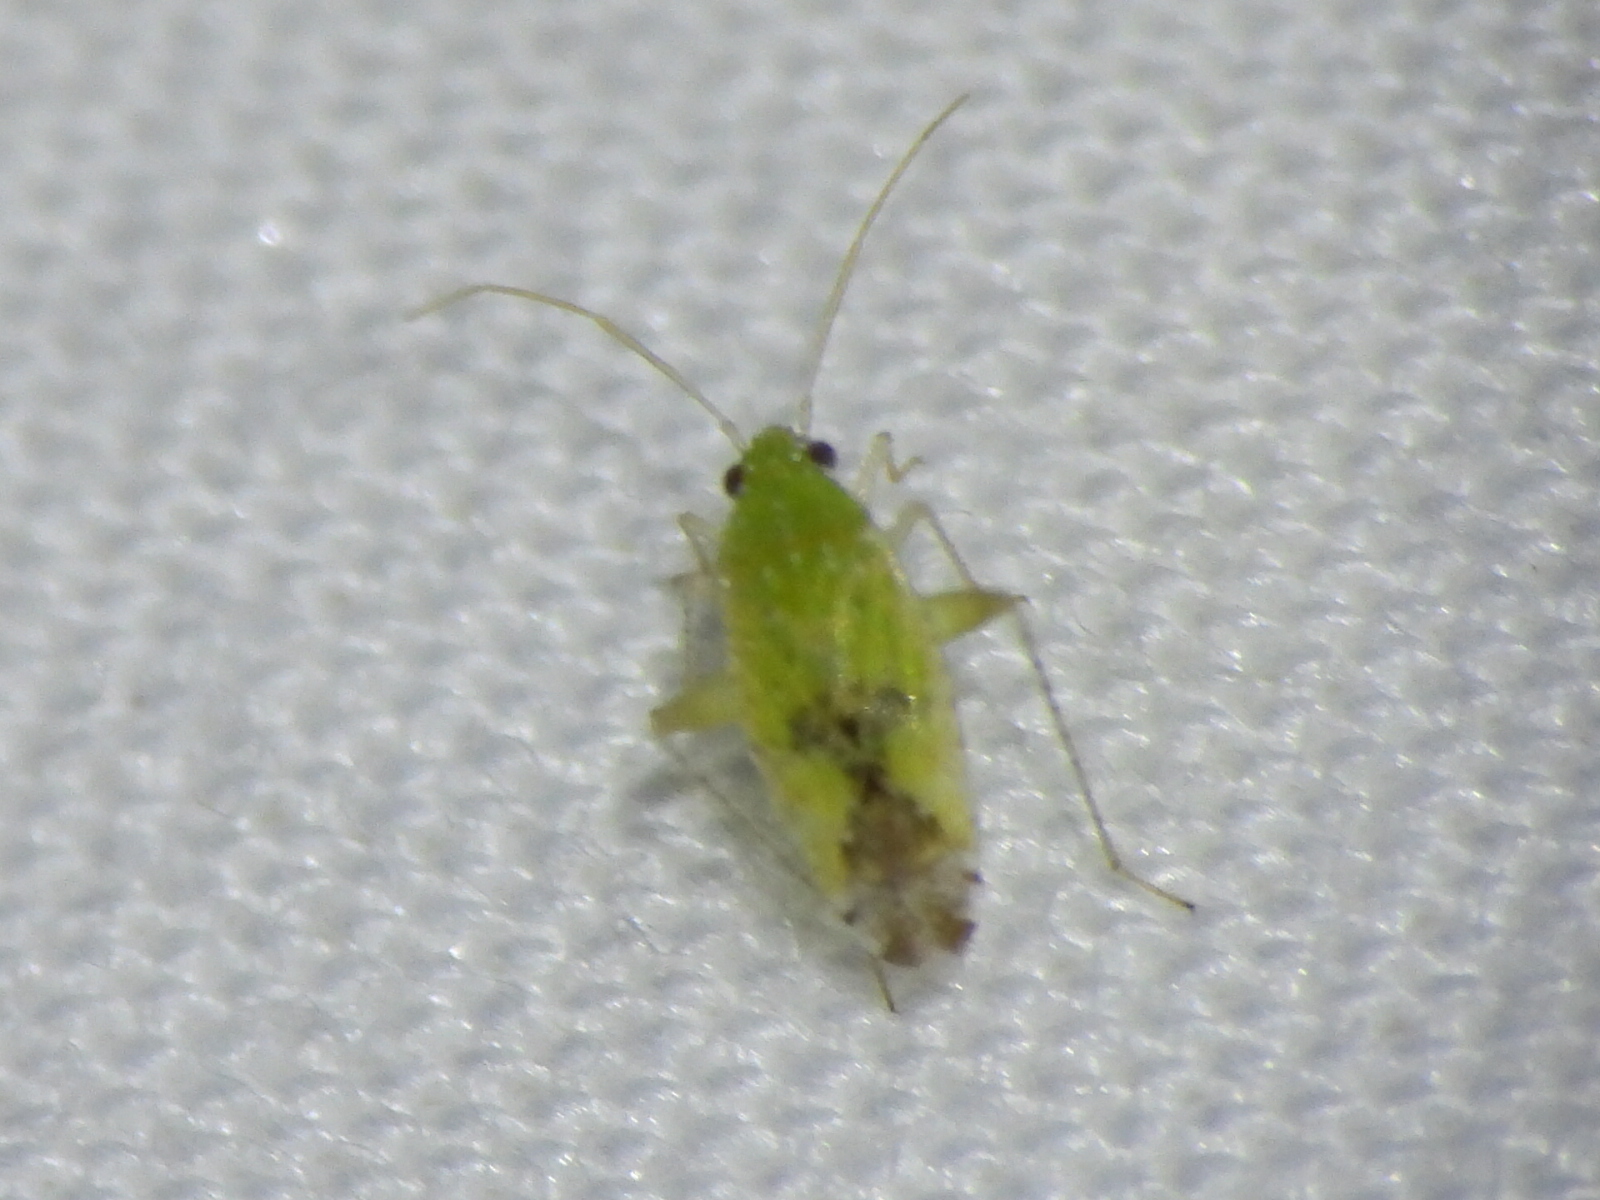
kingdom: Animalia
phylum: Arthropoda
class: Insecta
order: Hemiptera
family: Miridae
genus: Keltonia
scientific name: Keltonia tuckeri
